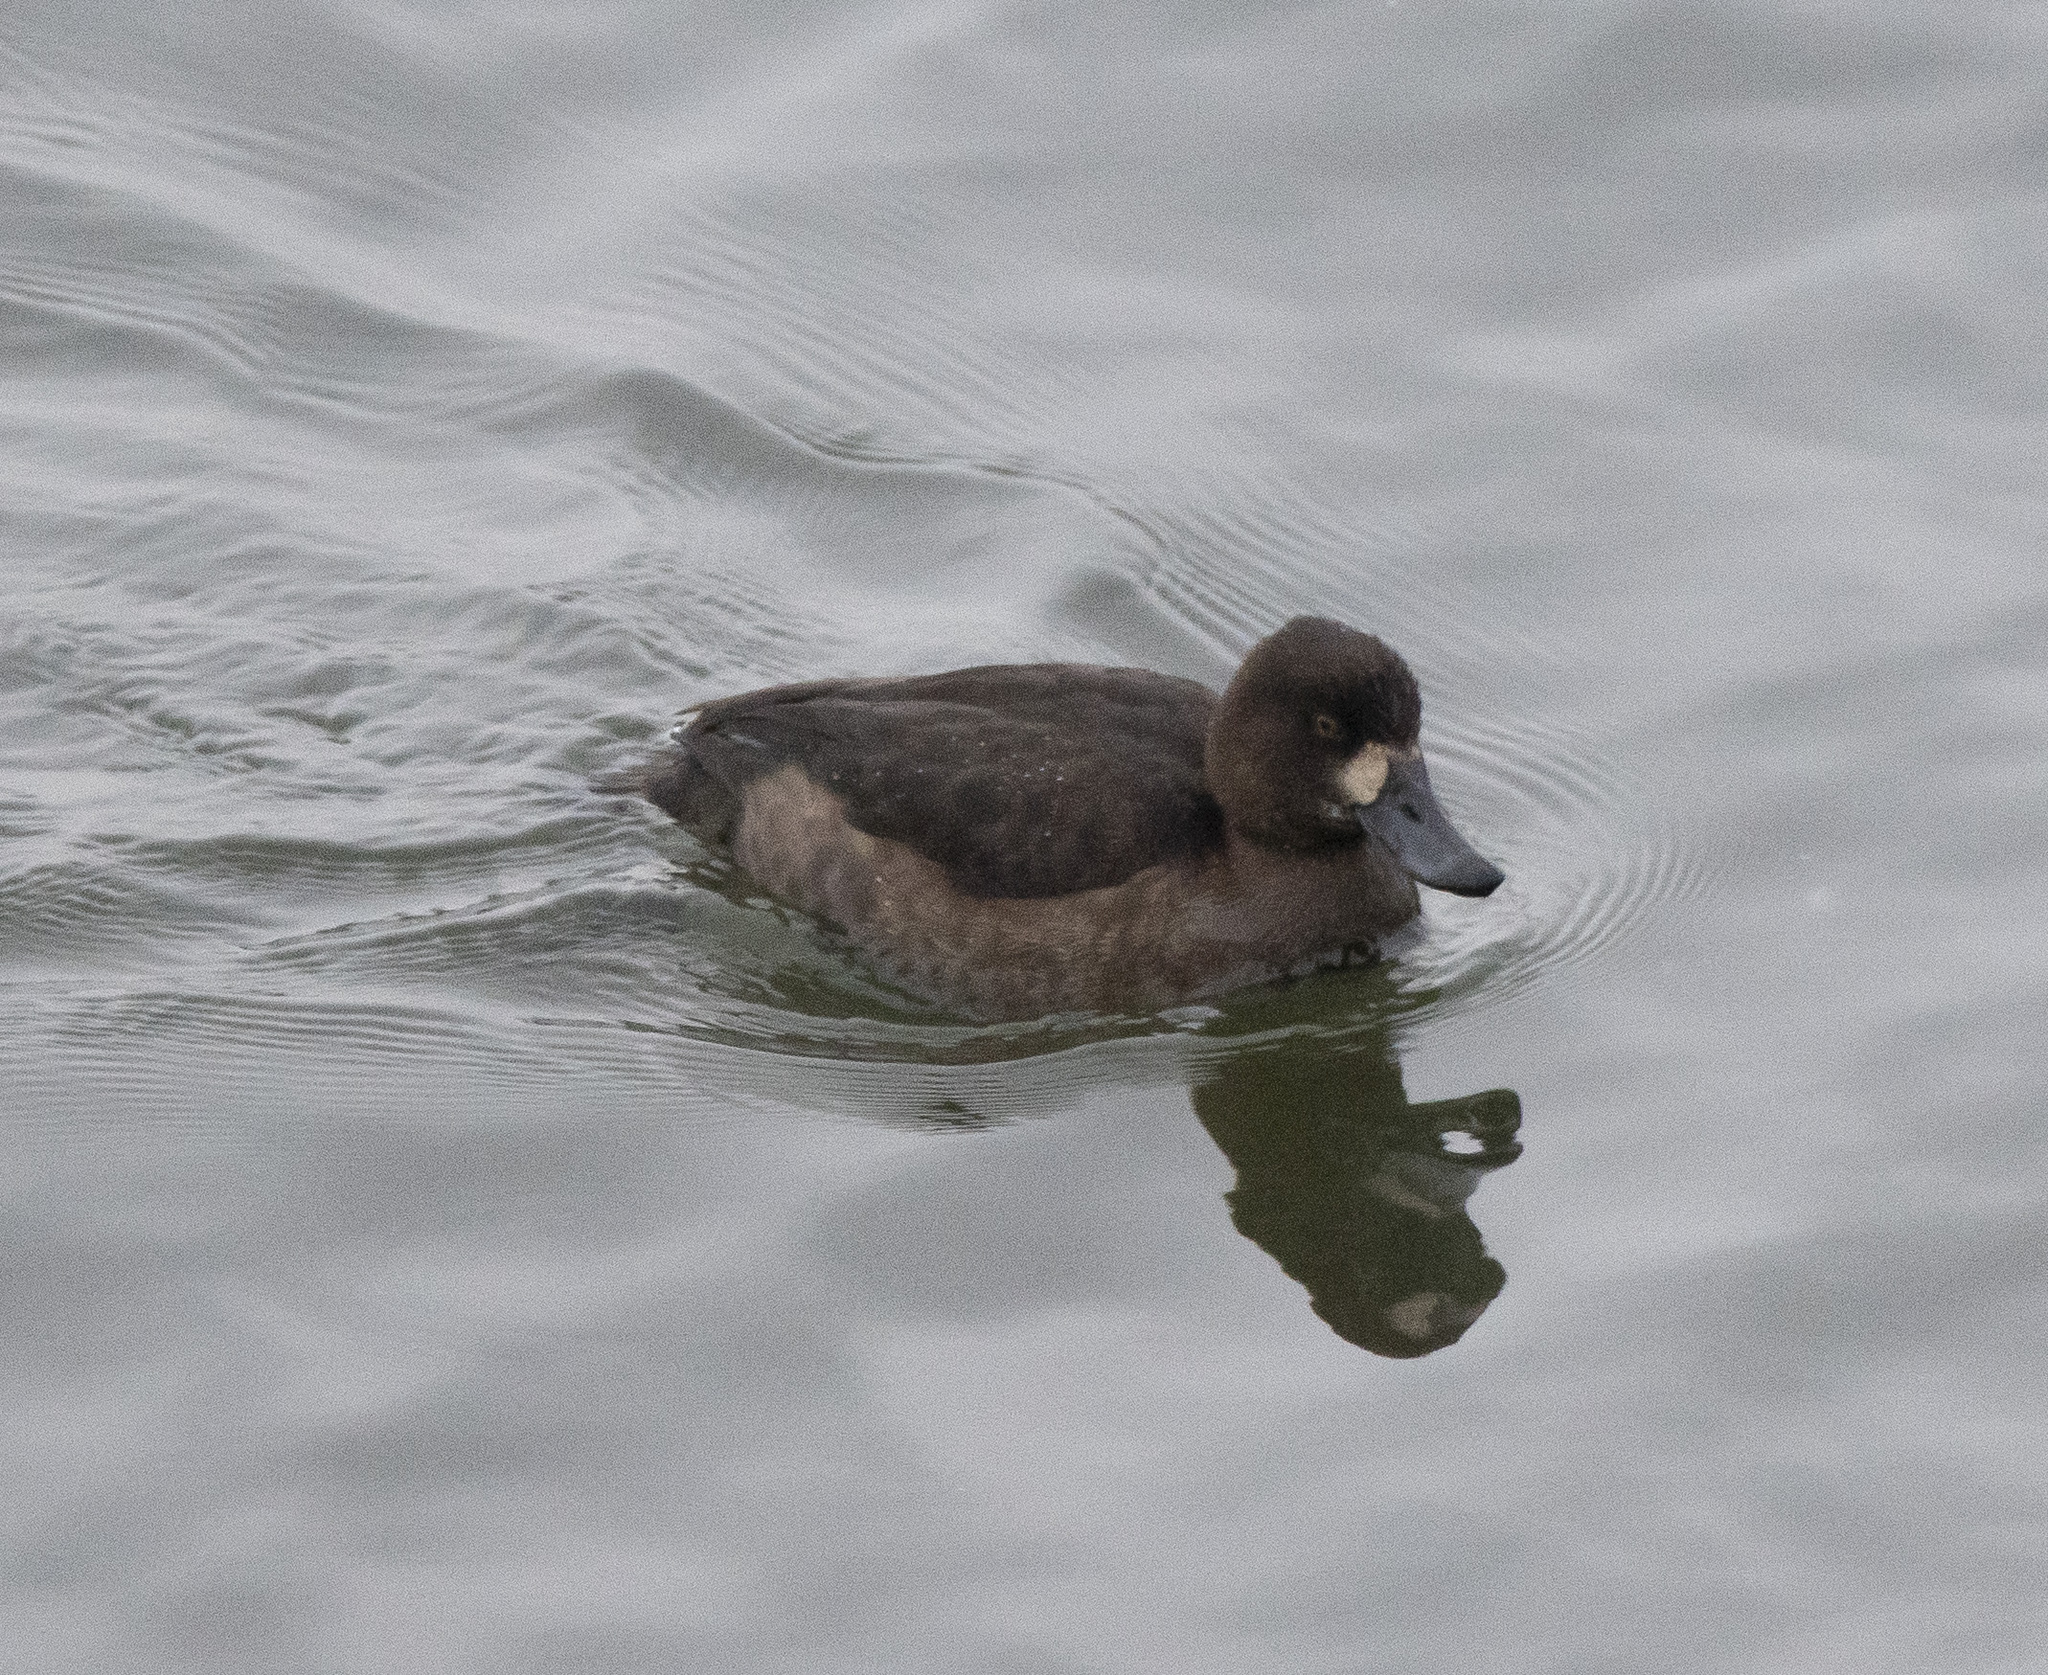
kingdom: Animalia
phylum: Chordata
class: Aves
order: Anseriformes
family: Anatidae
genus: Aythya
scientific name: Aythya fuligula
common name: Tufted duck
